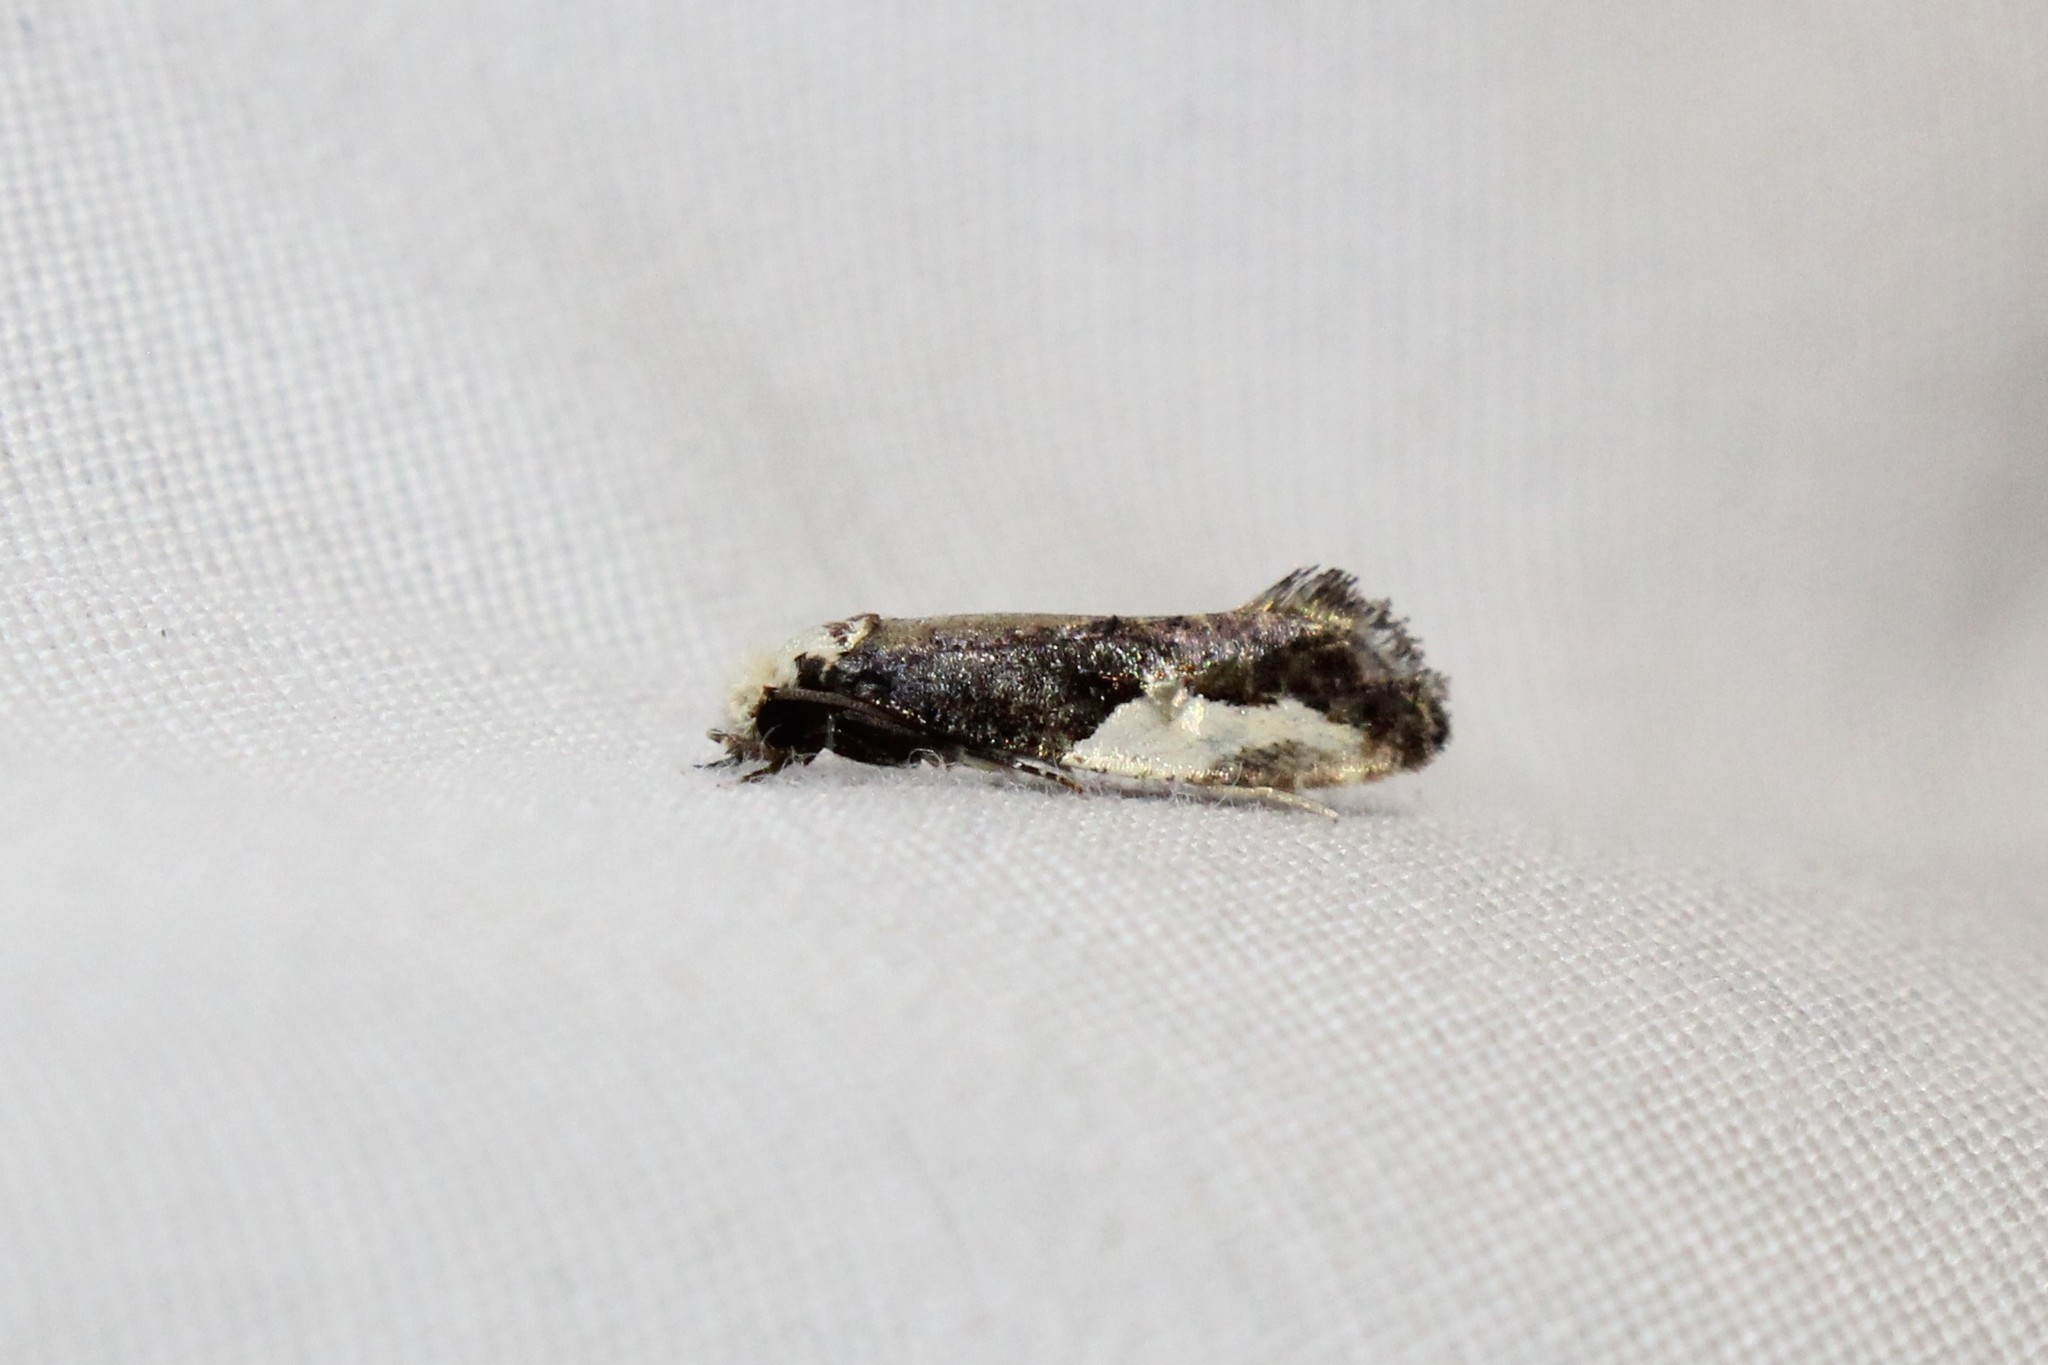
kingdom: Animalia
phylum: Arthropoda
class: Insecta
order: Lepidoptera
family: Tineidae
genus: Monopis
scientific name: Monopis longella
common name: Pavlovski's monopis moth
